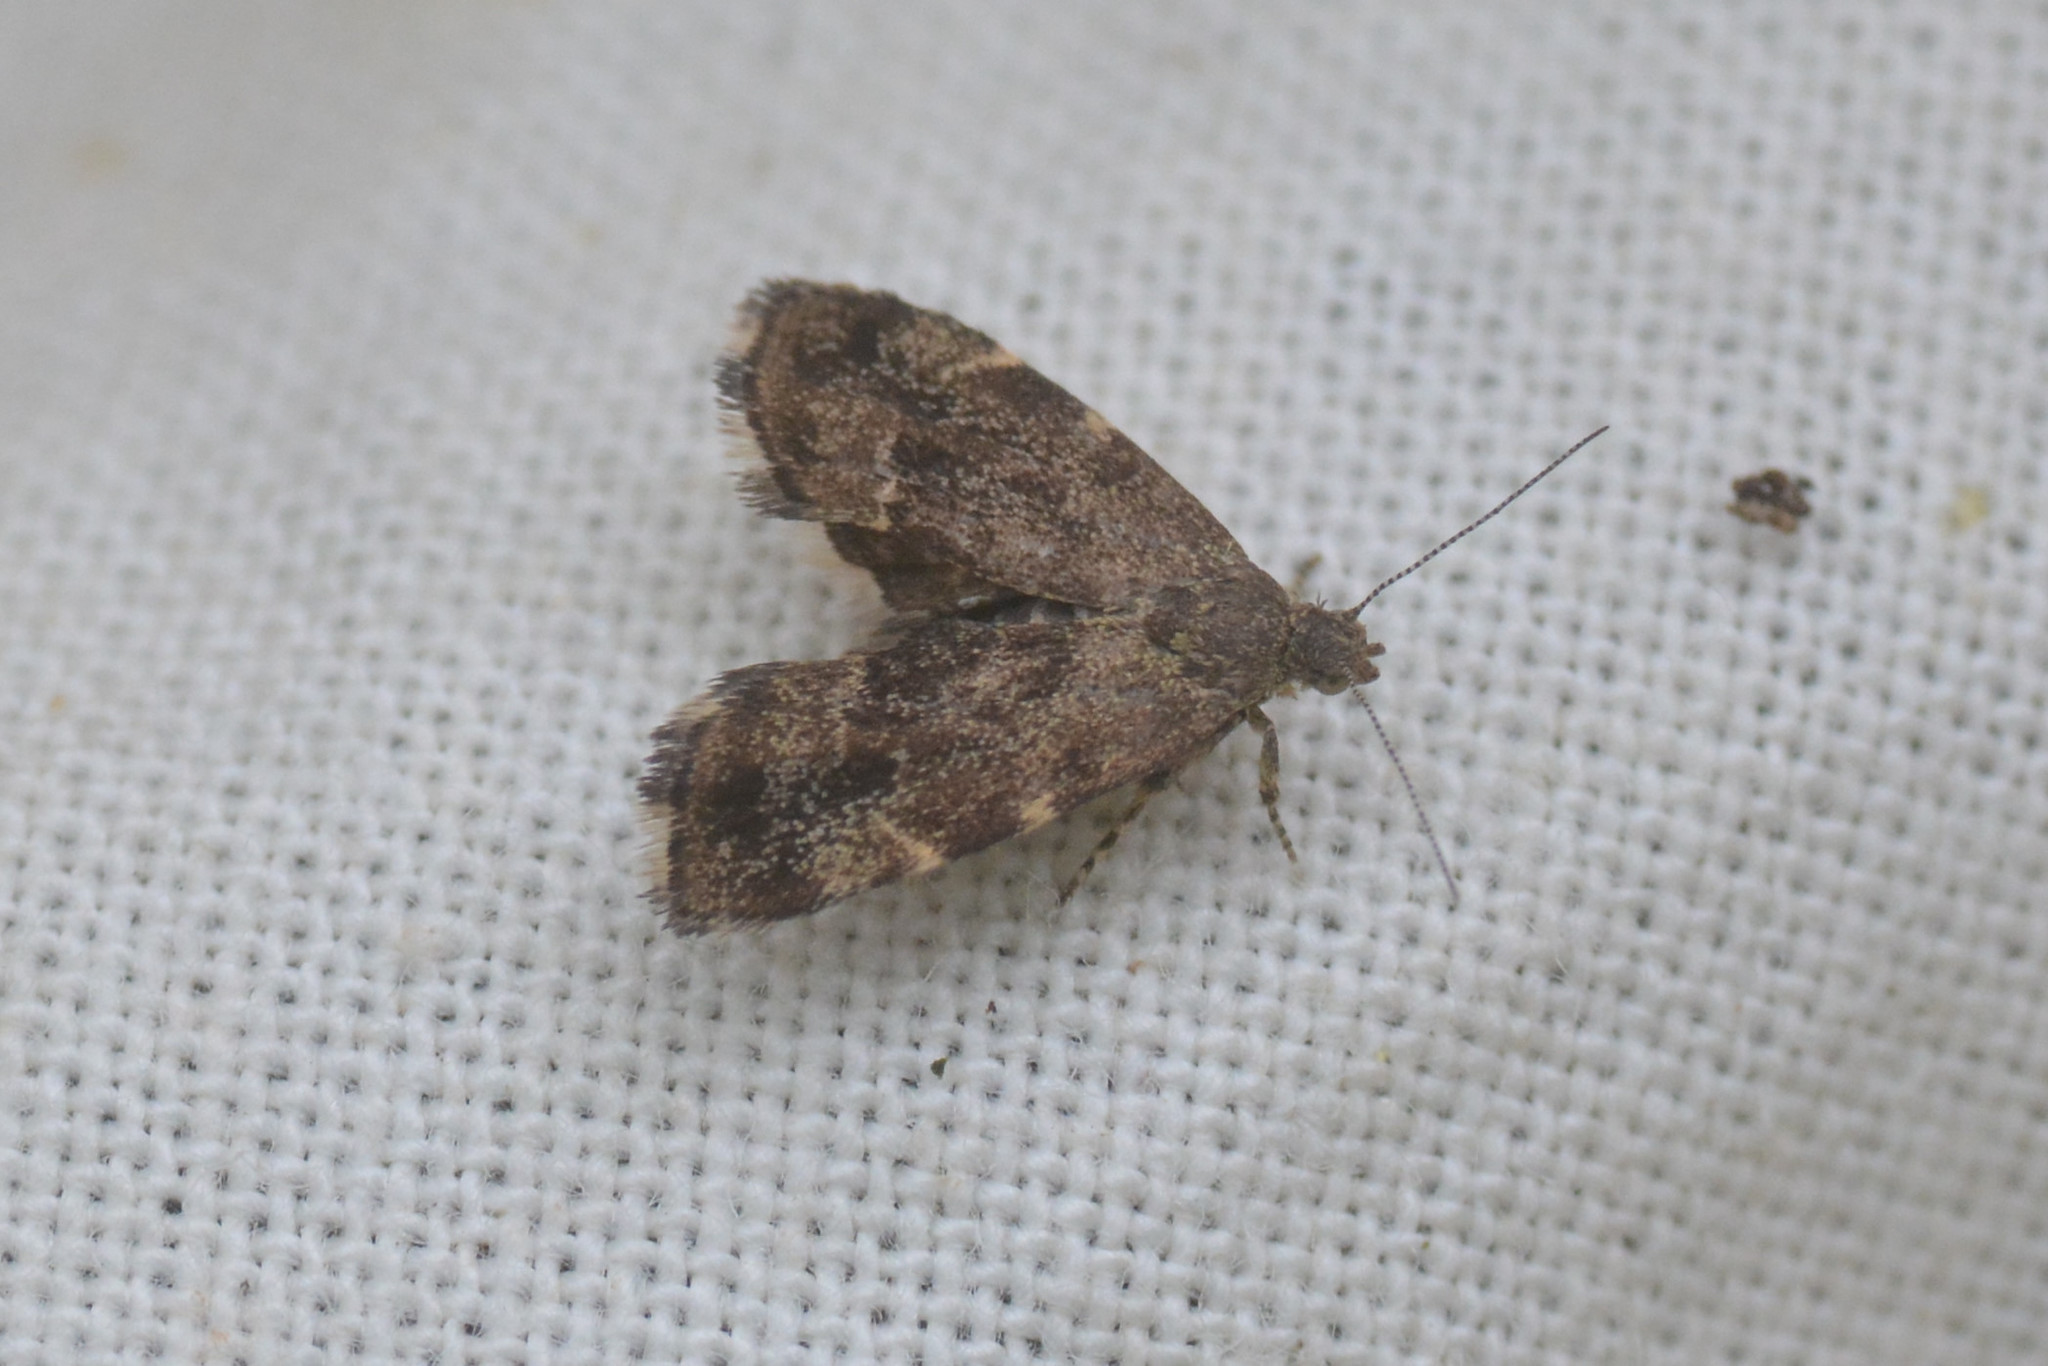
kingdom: Animalia
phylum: Arthropoda
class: Insecta
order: Lepidoptera
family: Choreutidae
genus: Anthophila
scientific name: Anthophila fabriciana
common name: Nettle-tap
